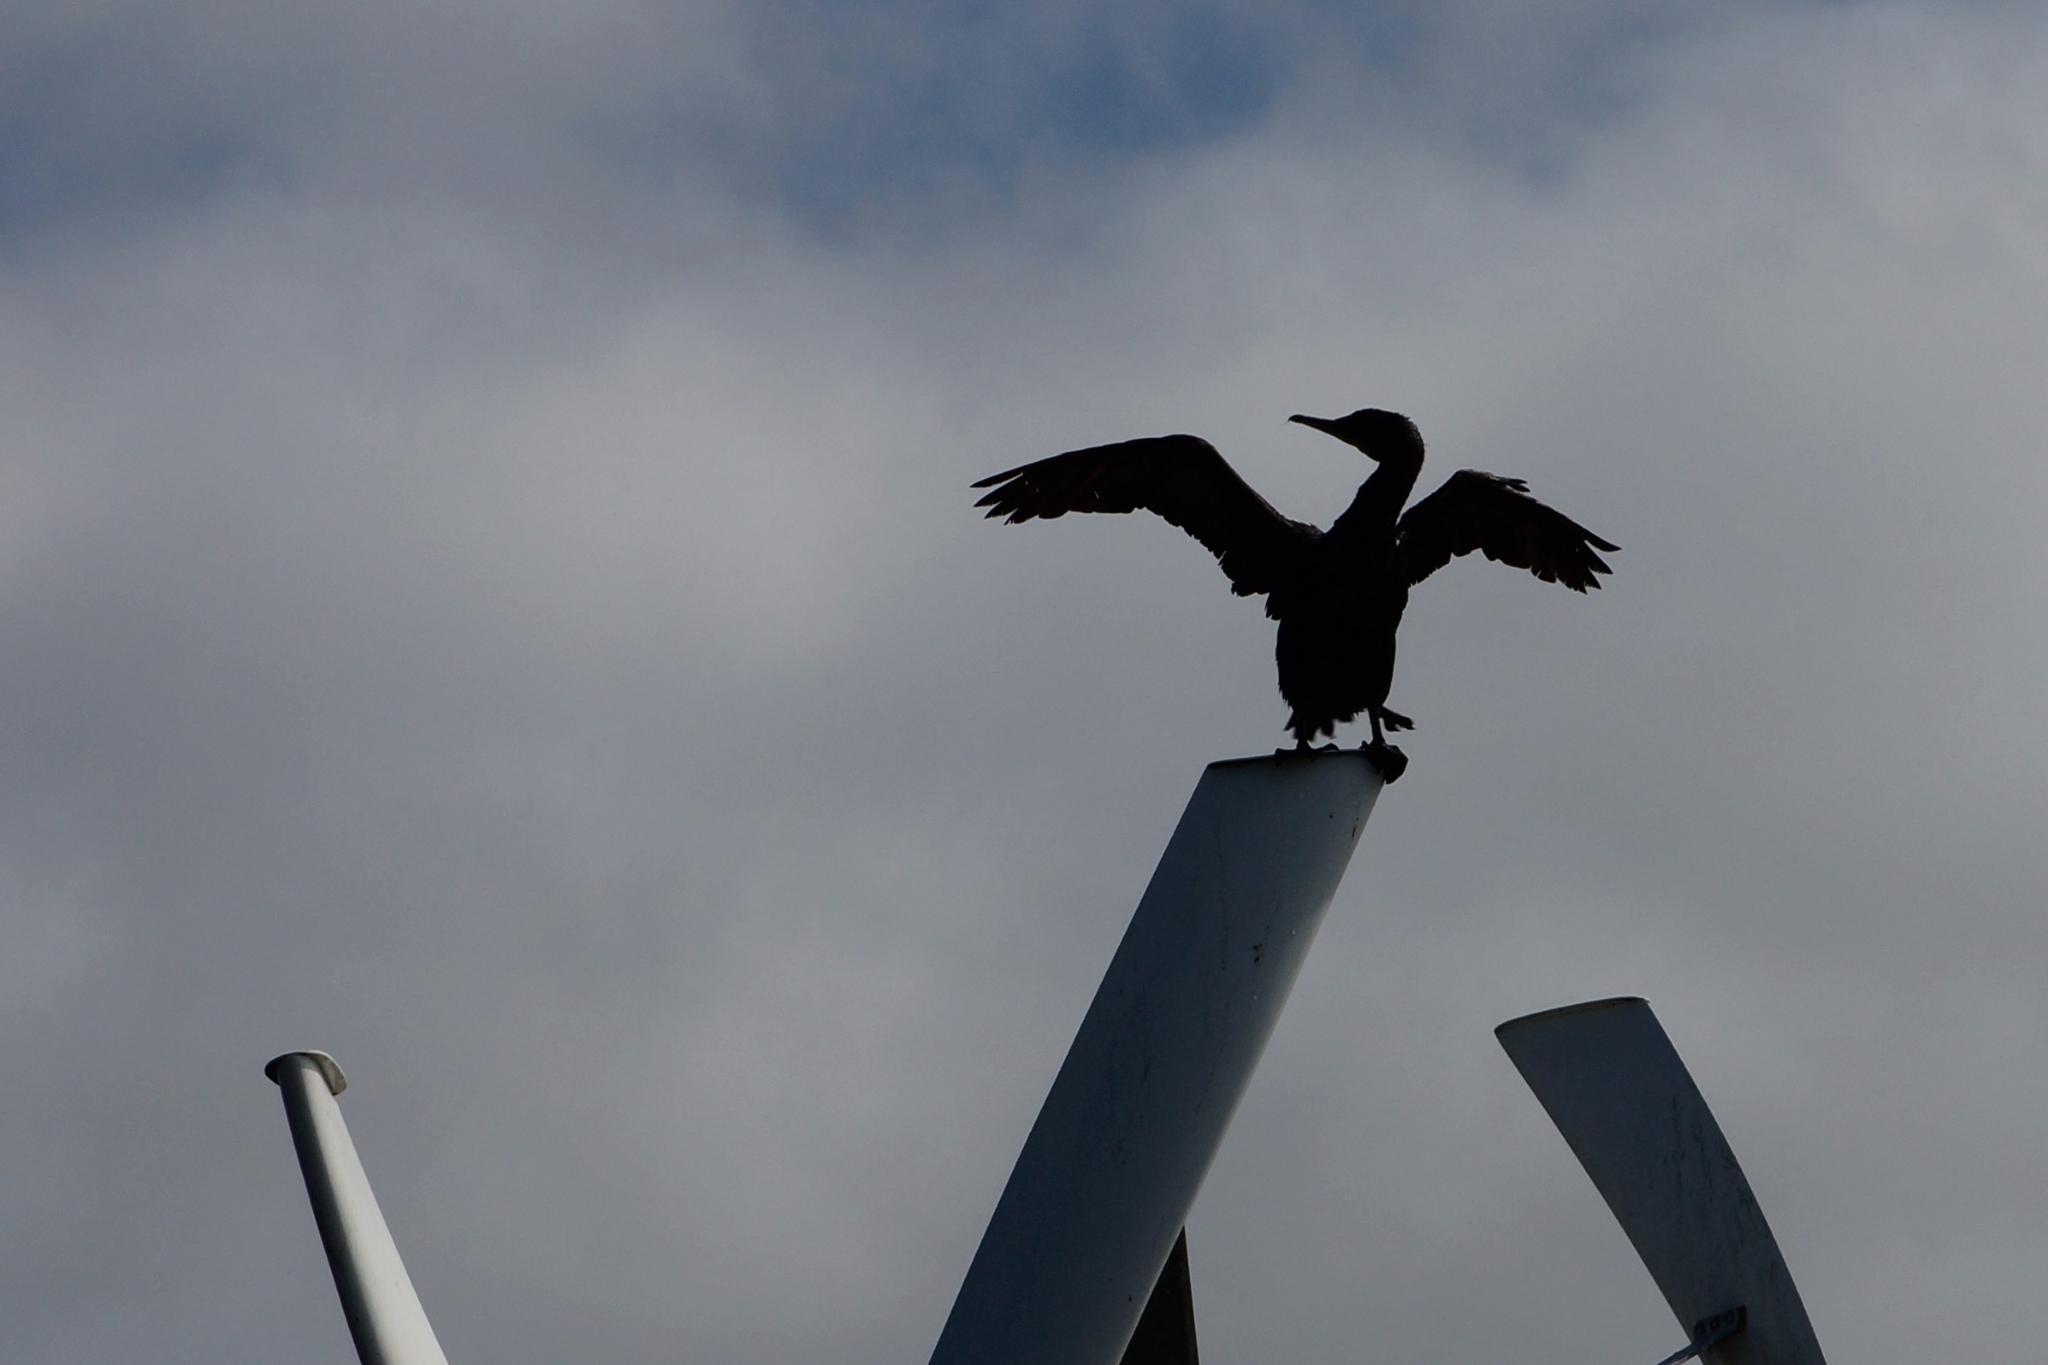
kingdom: Animalia
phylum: Chordata
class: Aves
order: Suliformes
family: Phalacrocoracidae
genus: Phalacrocorax
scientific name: Phalacrocorax carbo
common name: Great cormorant
